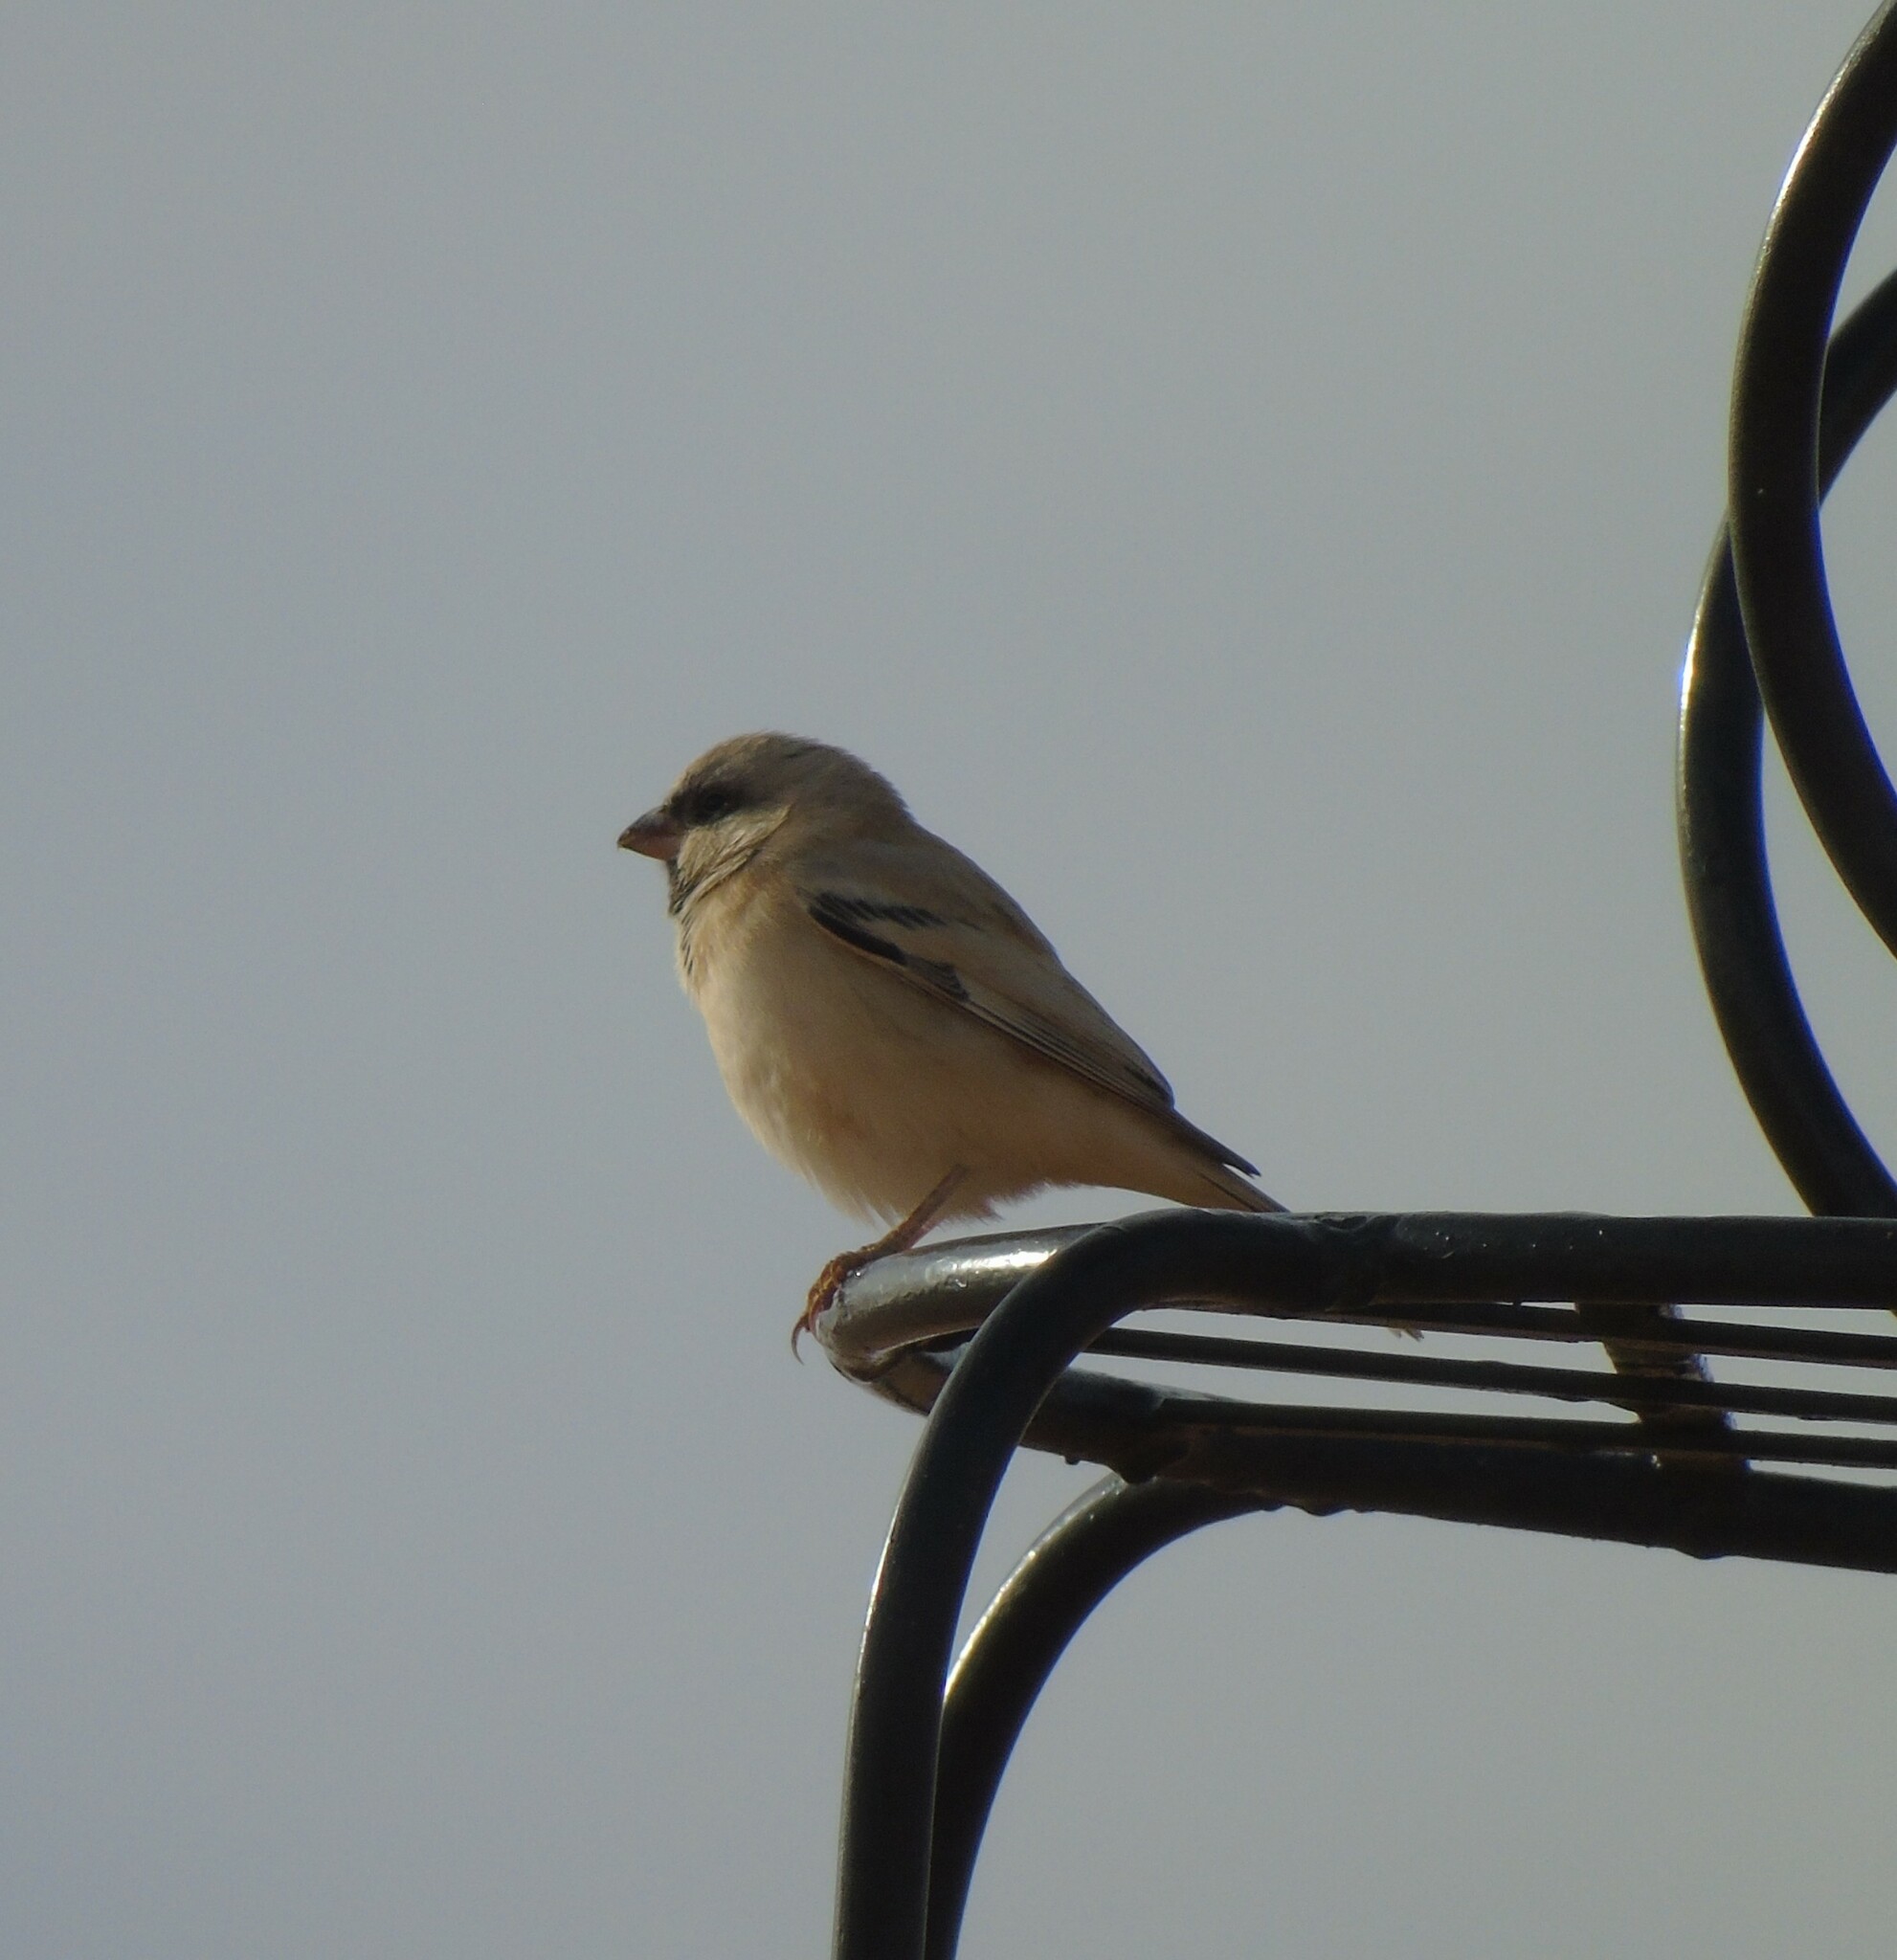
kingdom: Animalia
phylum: Chordata
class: Aves
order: Passeriformes
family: Passeridae
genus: Passer
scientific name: Passer simplex
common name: Desert sparrow
